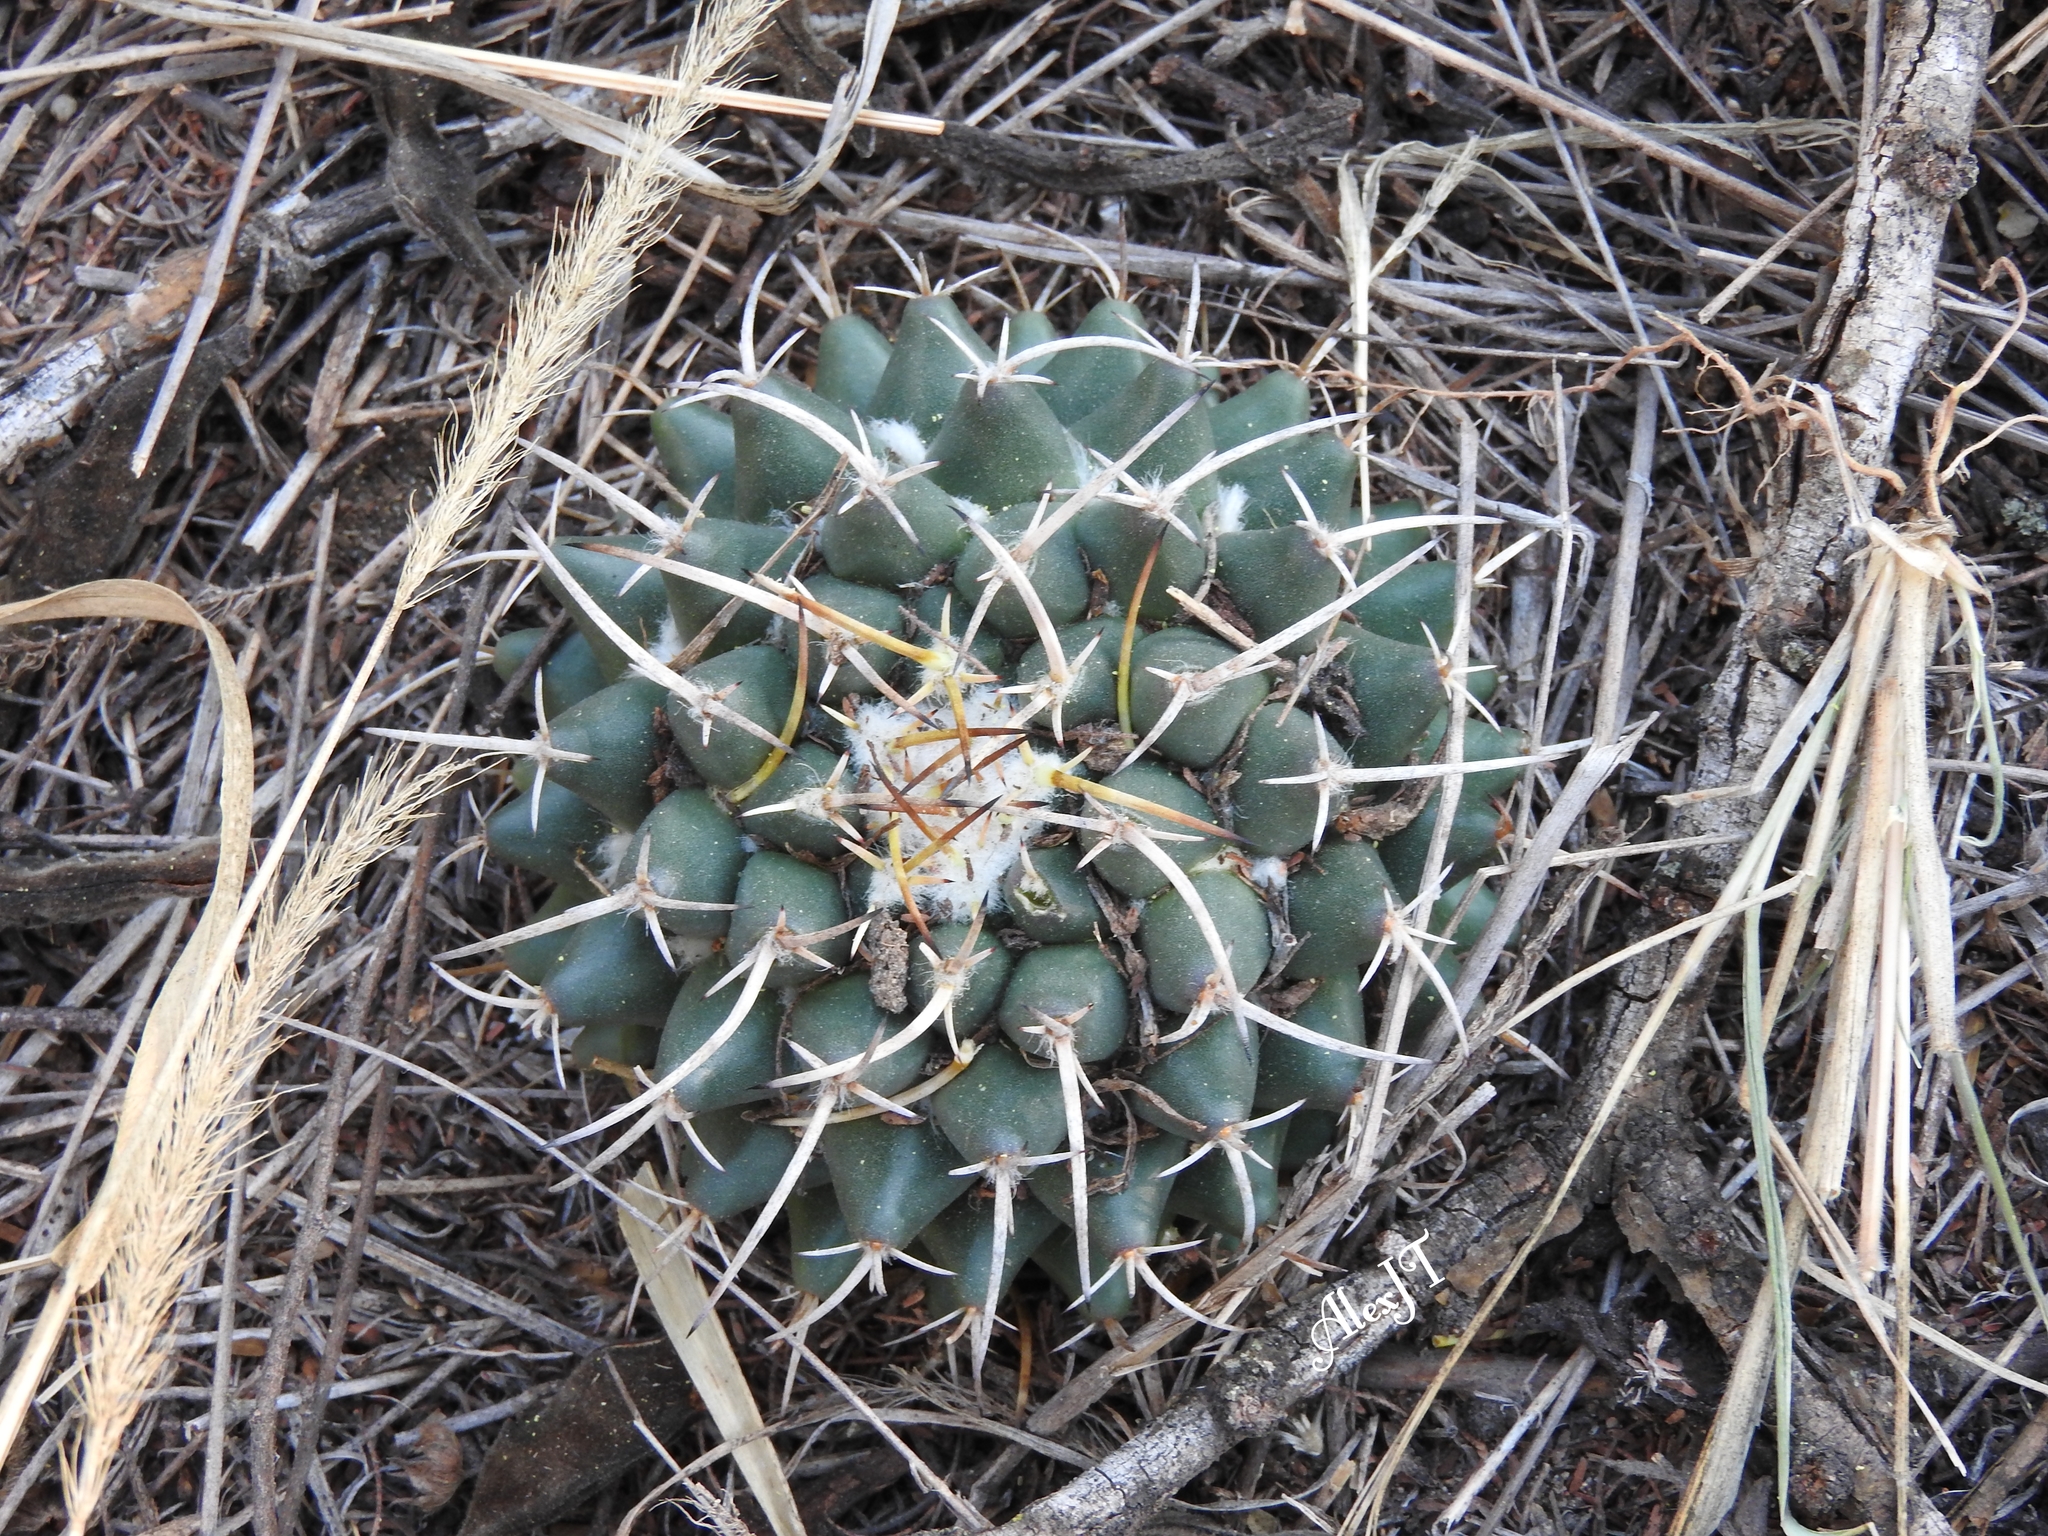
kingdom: Plantae
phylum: Tracheophyta
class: Magnoliopsida
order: Caryophyllales
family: Cactaceae
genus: Mammillaria
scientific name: Mammillaria magnimamma
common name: Mexican pincushion
